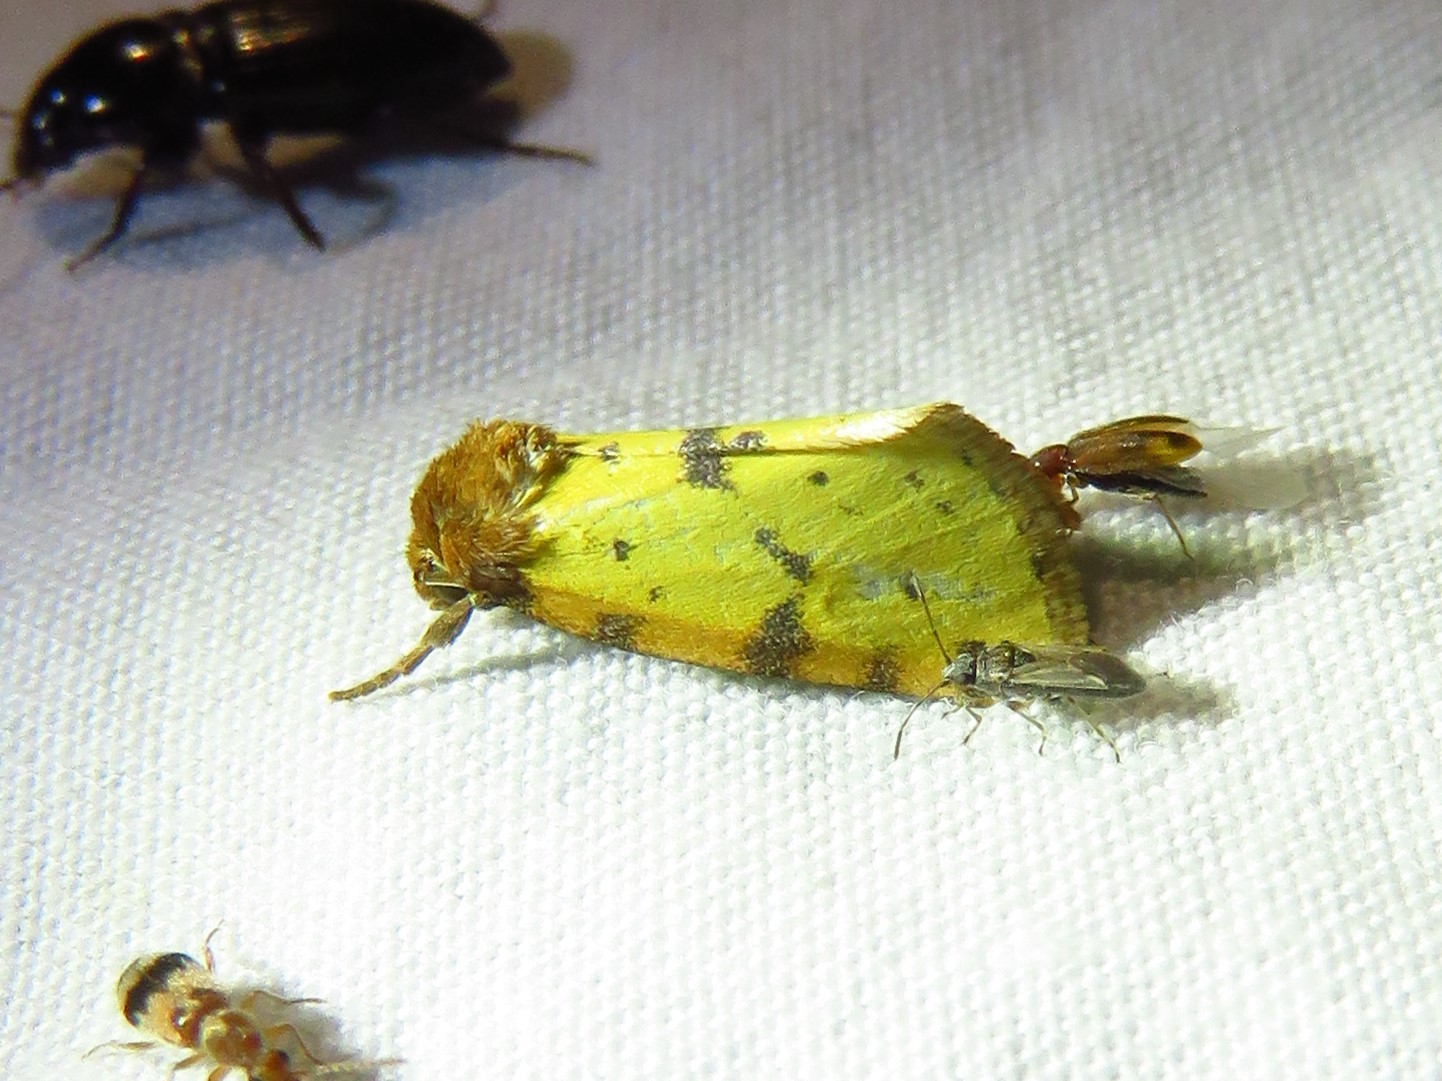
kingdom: Animalia
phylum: Arthropoda
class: Insecta
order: Lepidoptera
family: Noctuidae
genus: Azenia
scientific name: Azenia obtusa
